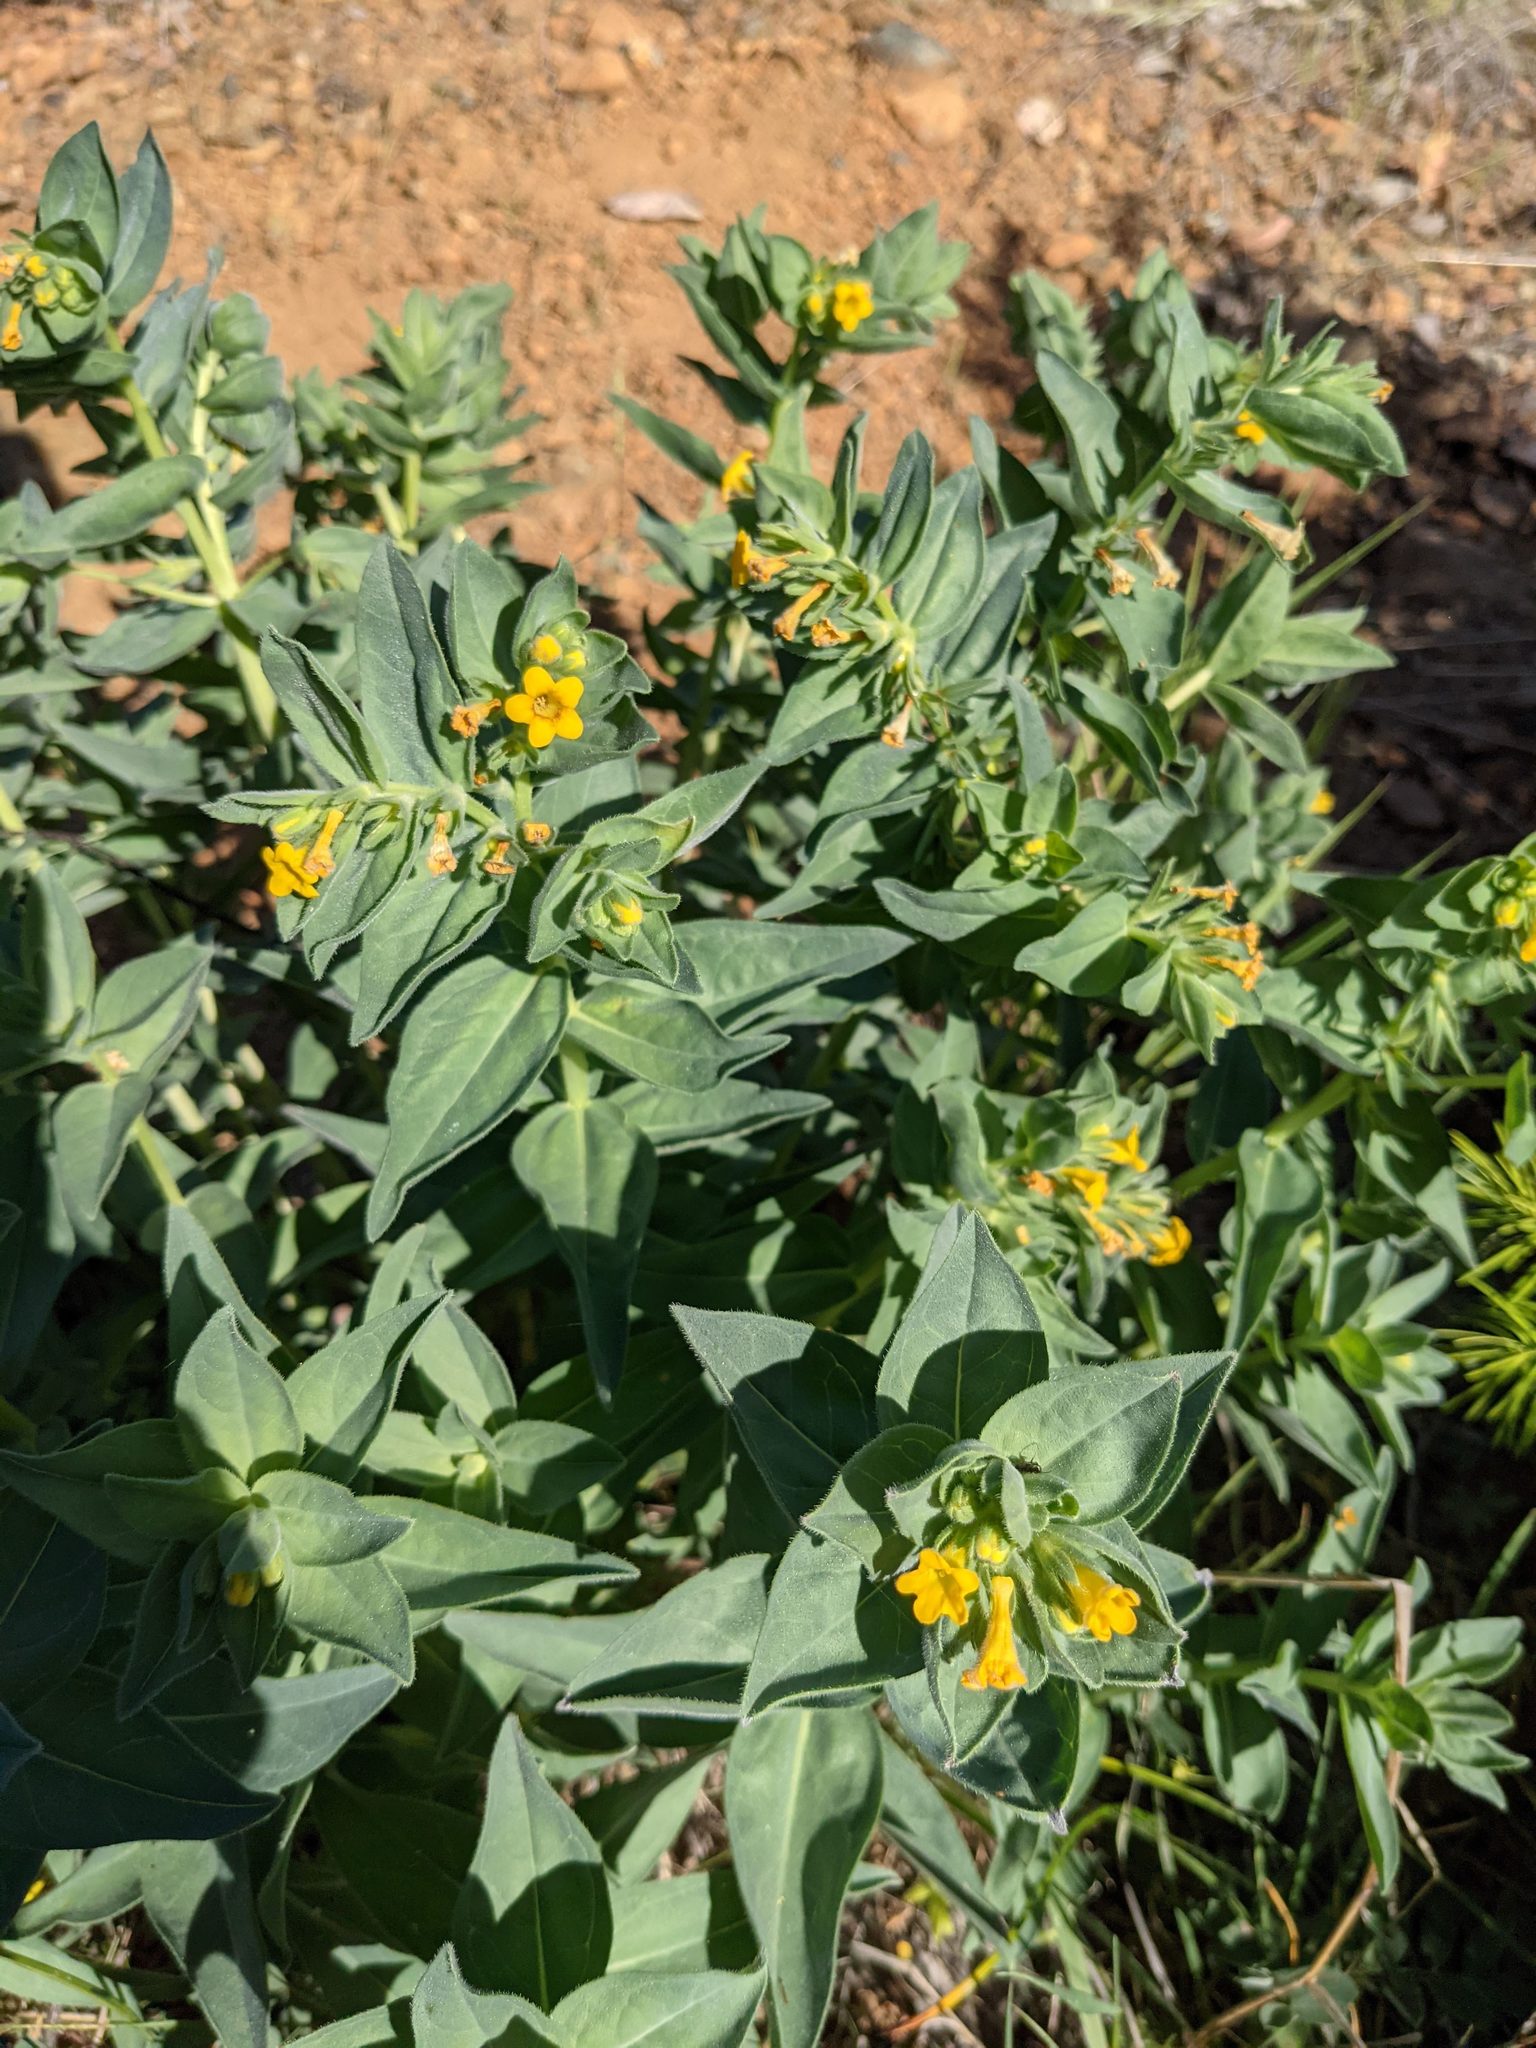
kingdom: Plantae
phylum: Tracheophyta
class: Magnoliopsida
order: Boraginales
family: Boraginaceae
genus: Lithospermum
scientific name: Lithospermum californicum
